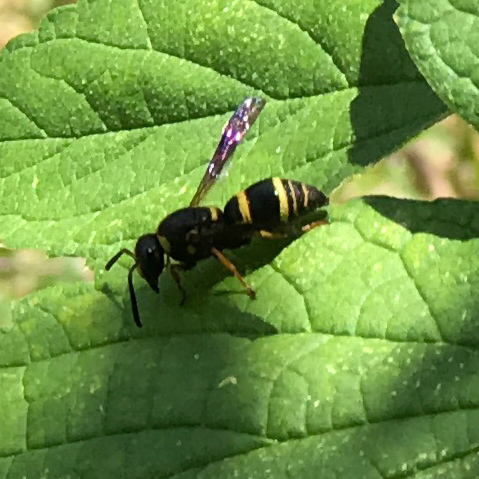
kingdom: Animalia
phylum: Arthropoda
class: Insecta
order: Hymenoptera
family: Eumenidae
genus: Euodynerus
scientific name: Euodynerus
